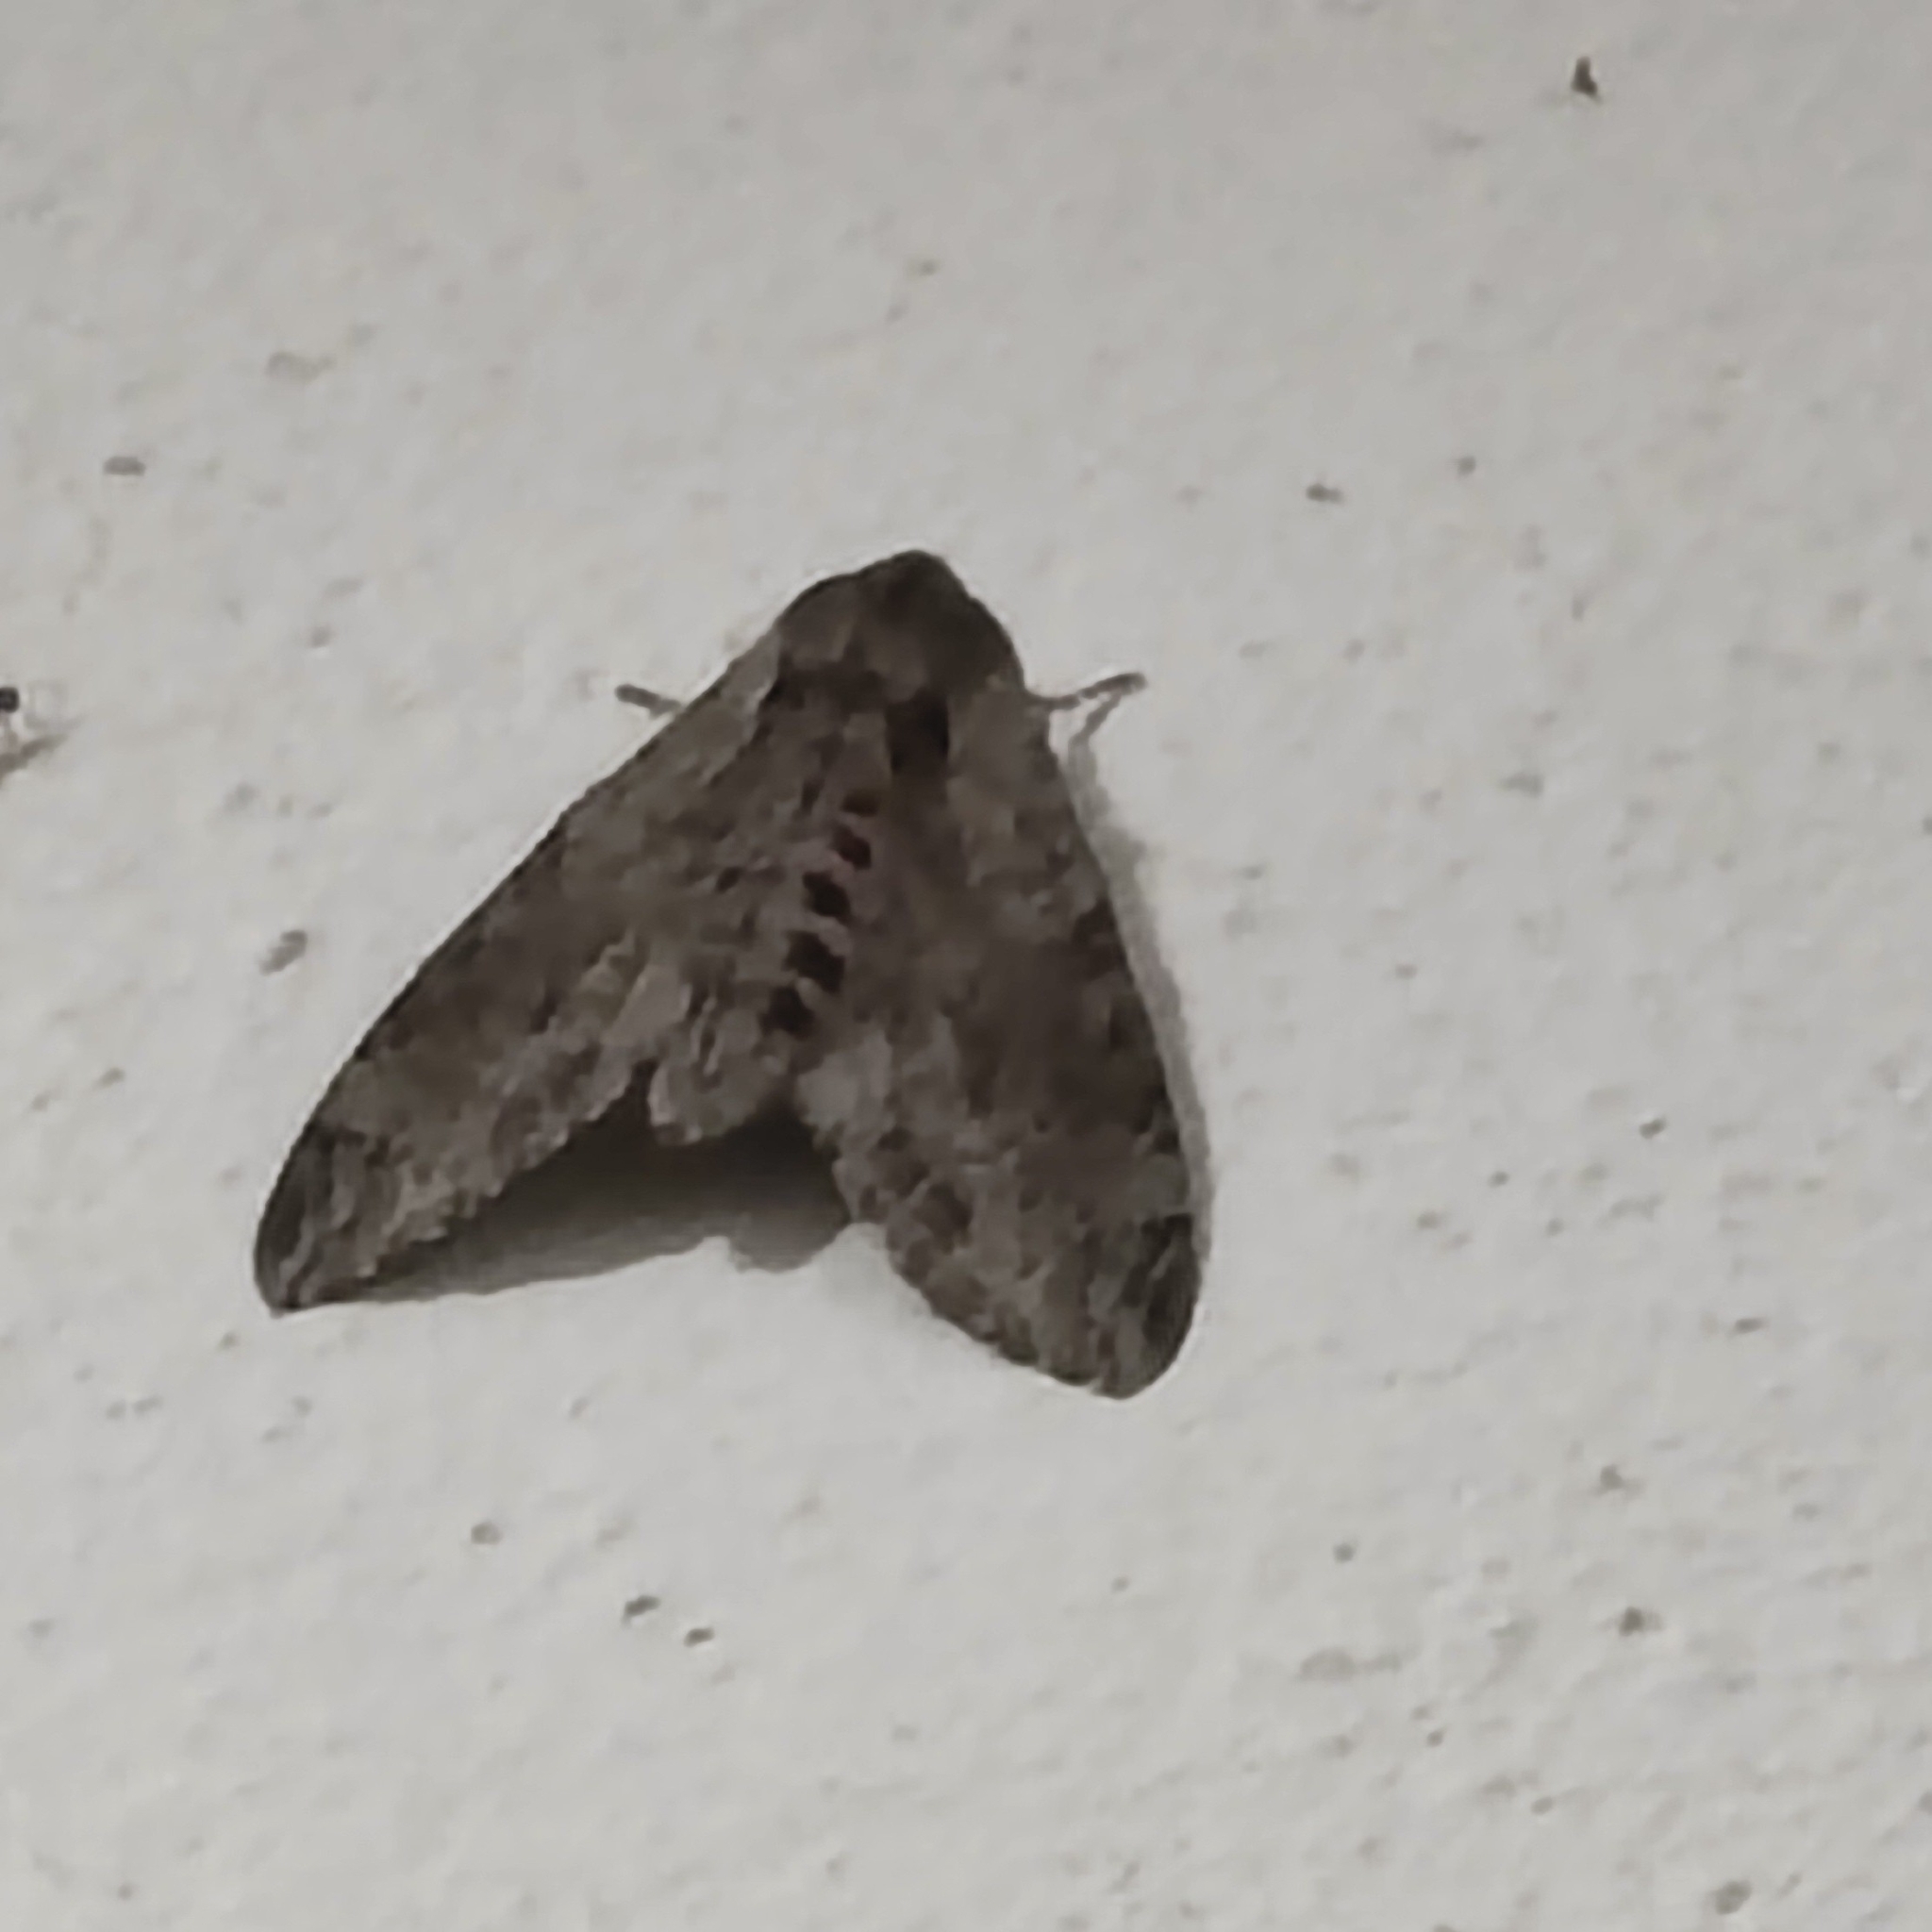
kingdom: Animalia
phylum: Arthropoda
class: Insecta
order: Lepidoptera
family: Sphingidae
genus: Agrius
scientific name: Agrius convolvuli
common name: Convolvulus hawkmoth
